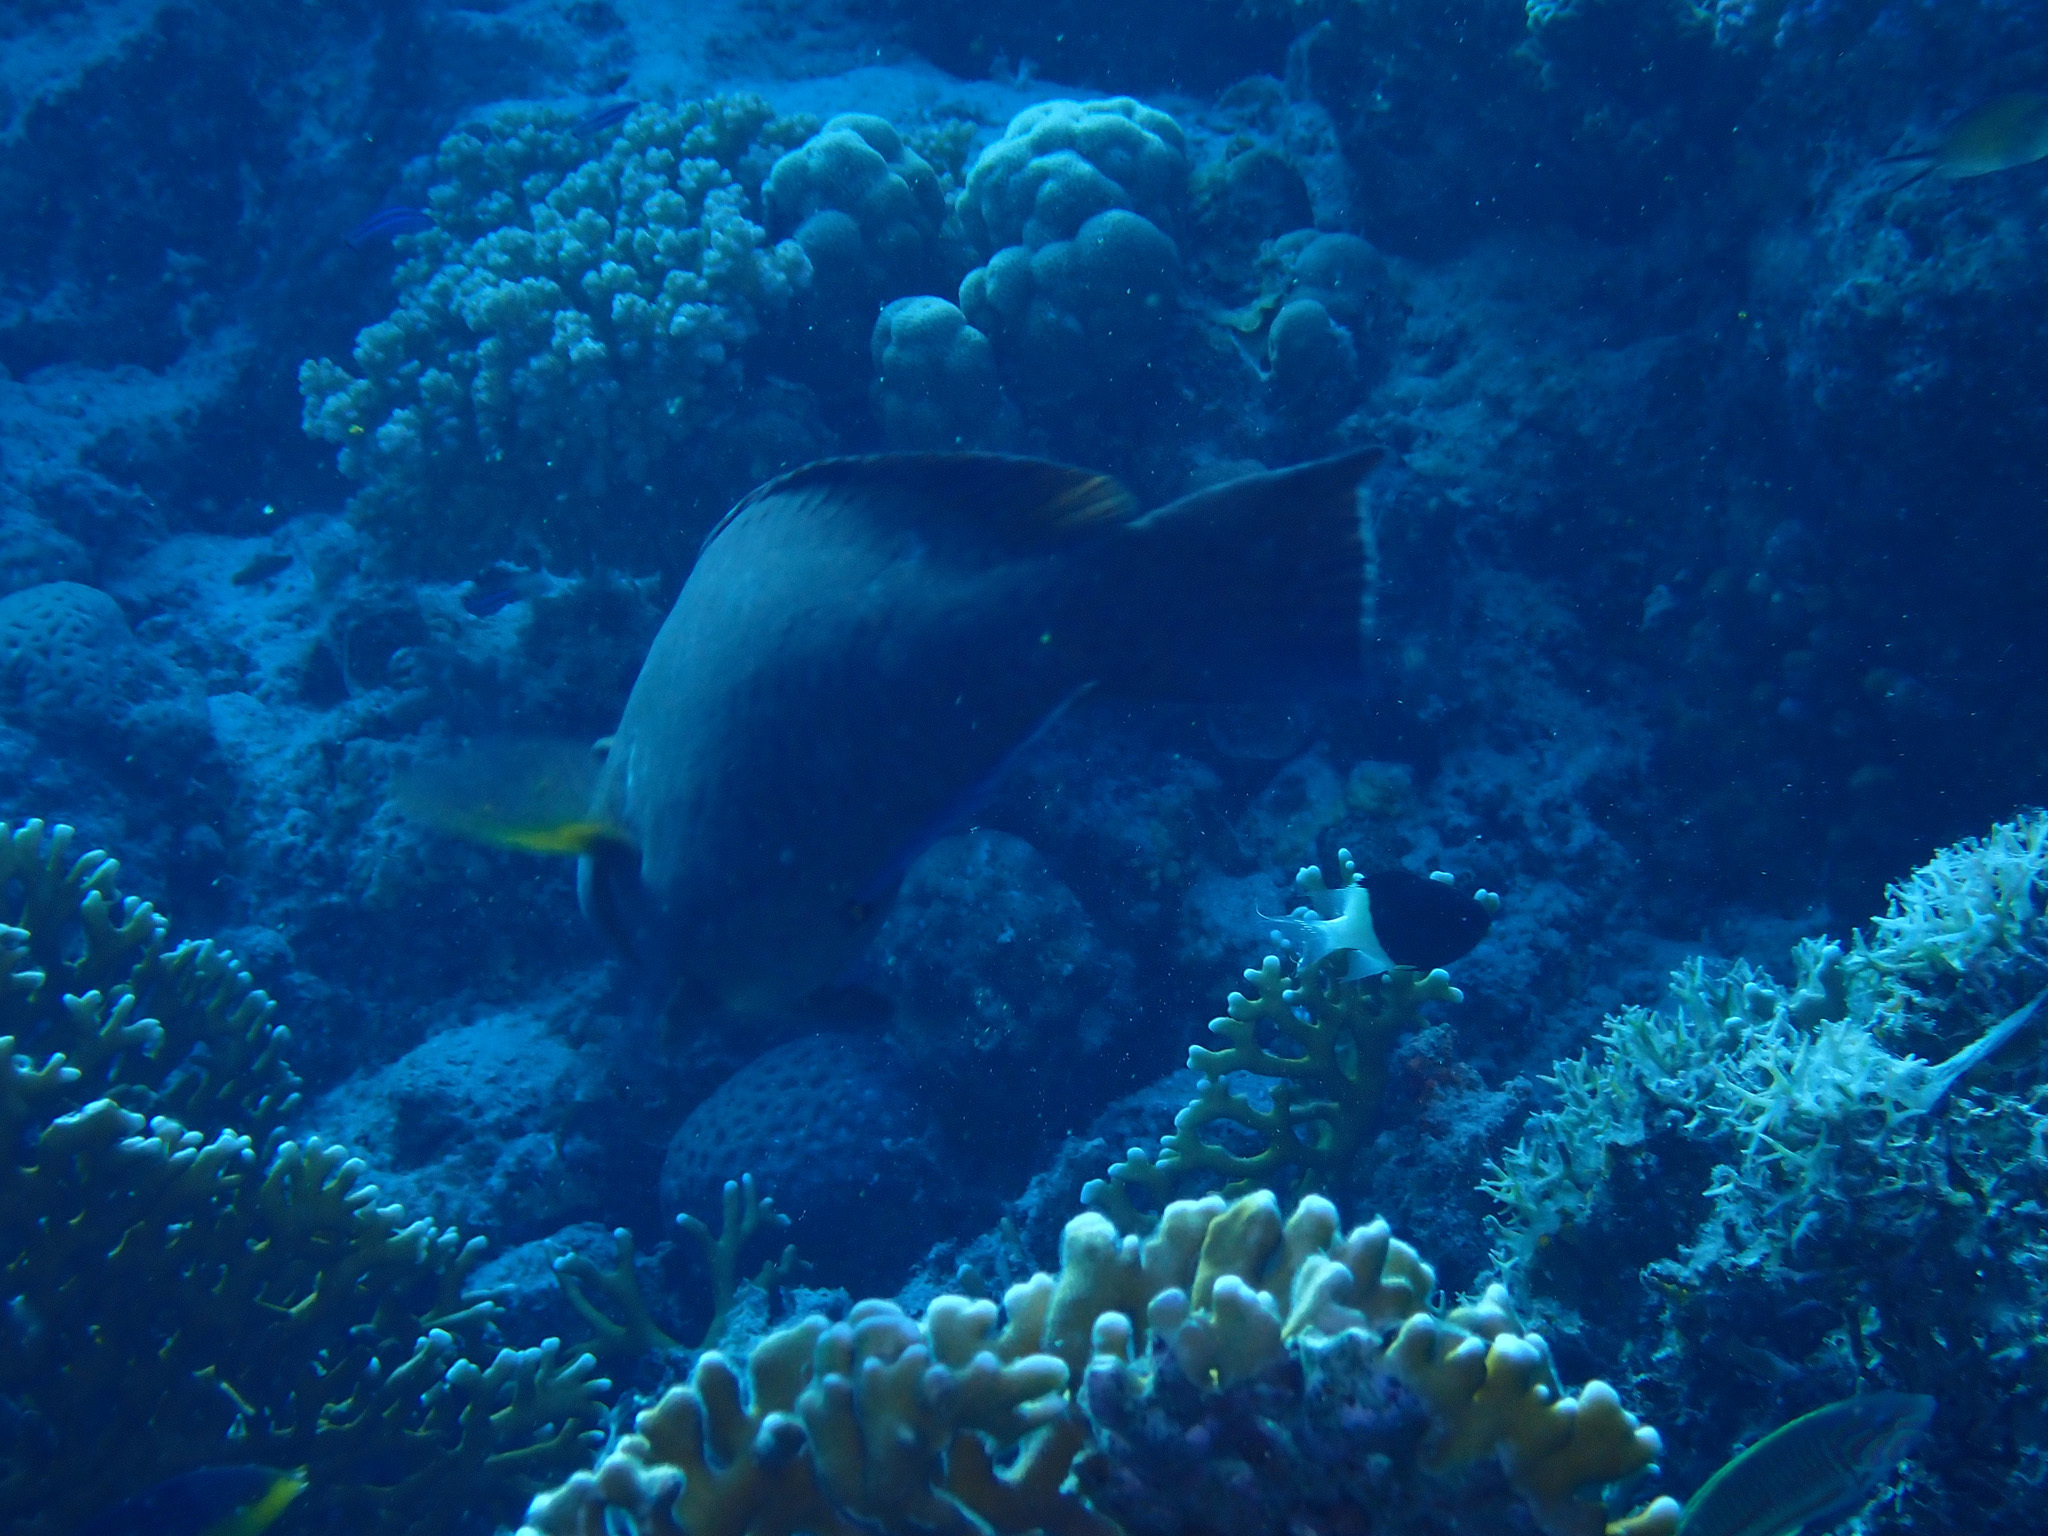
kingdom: Animalia
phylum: Chordata
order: Perciformes
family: Scaridae
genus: Calotomus
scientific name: Calotomus viridescens
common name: Dotted parrotfish
